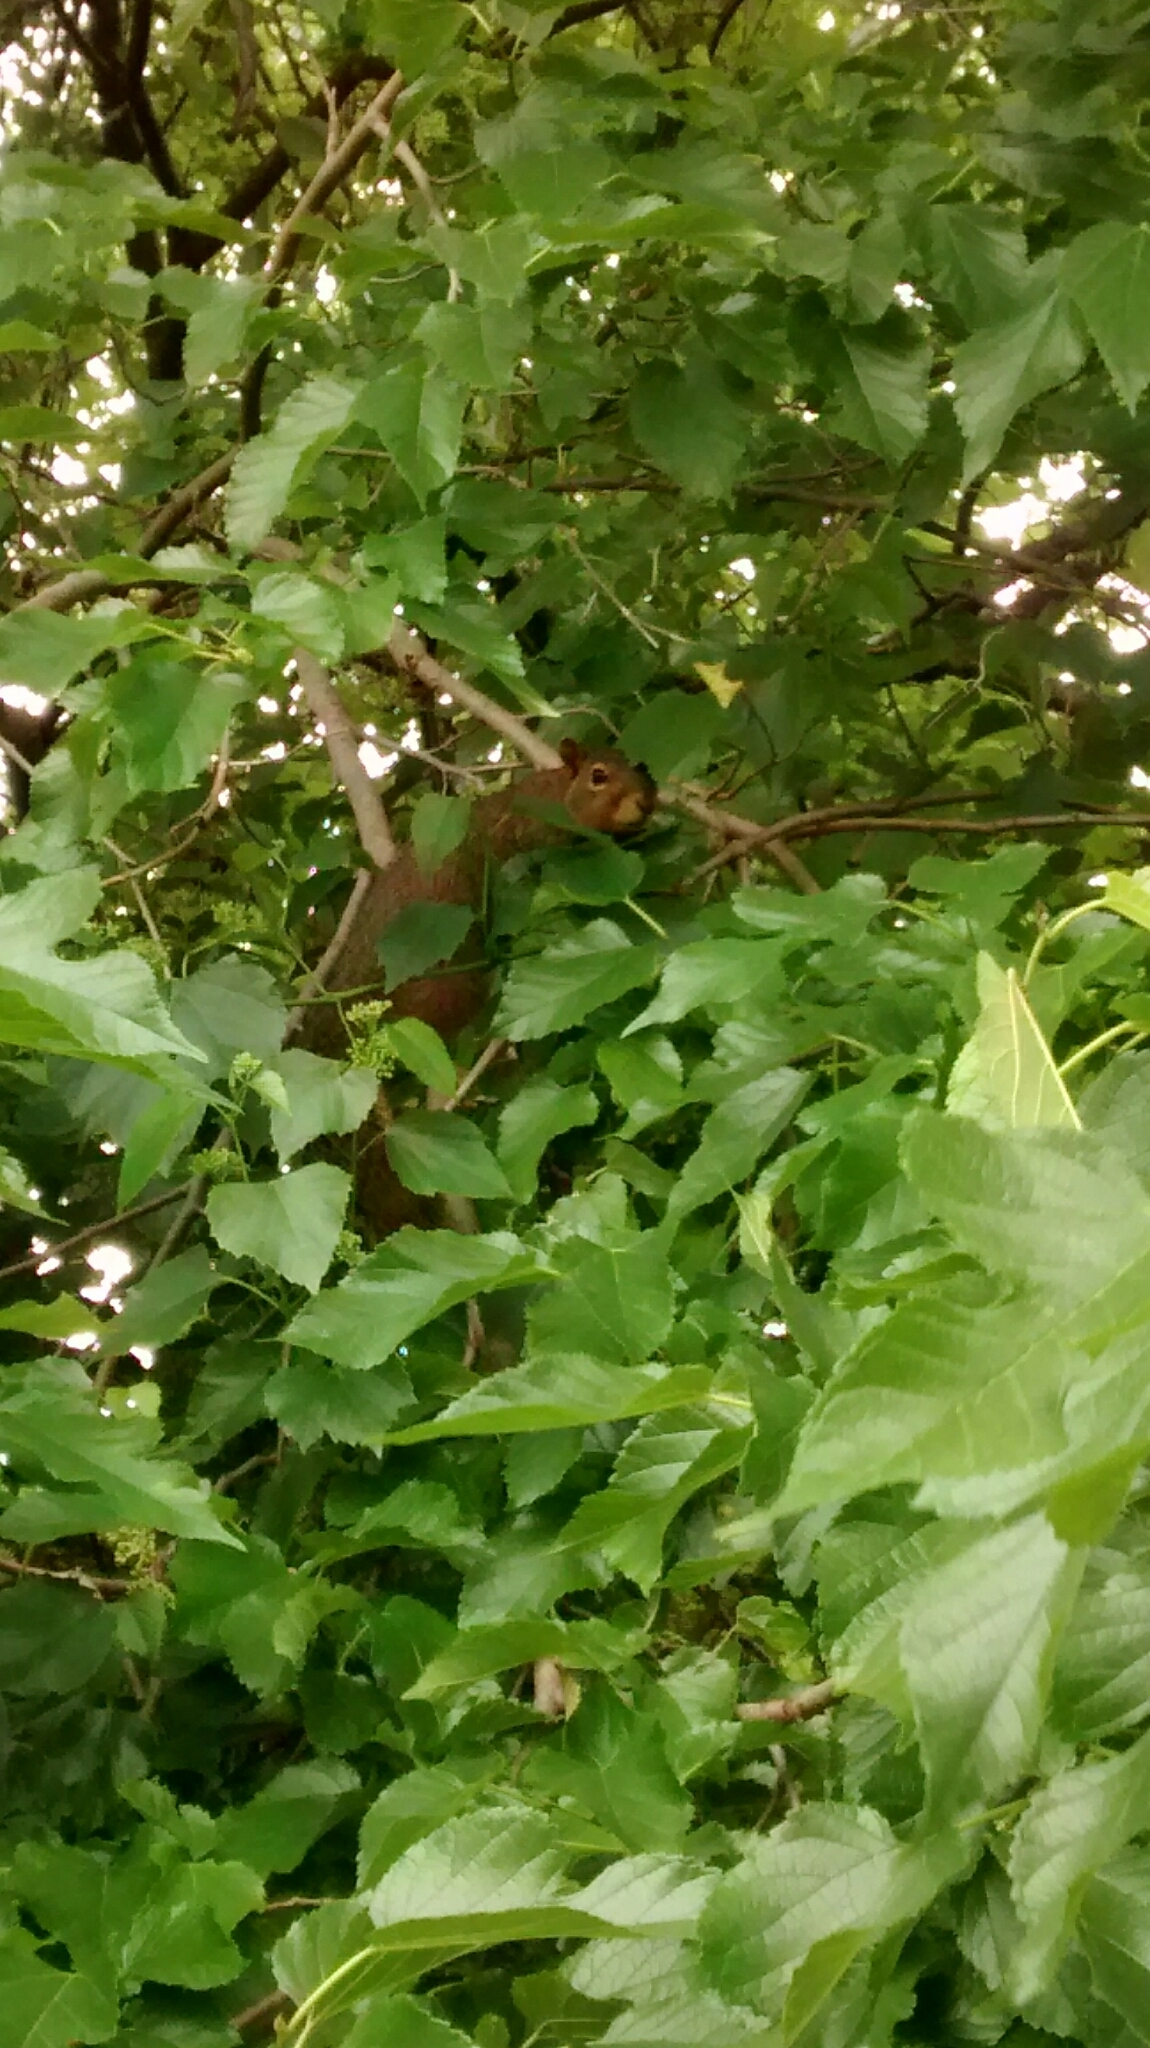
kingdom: Animalia
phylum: Chordata
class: Mammalia
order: Rodentia
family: Sciuridae
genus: Sciurus
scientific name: Sciurus niger
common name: Fox squirrel
